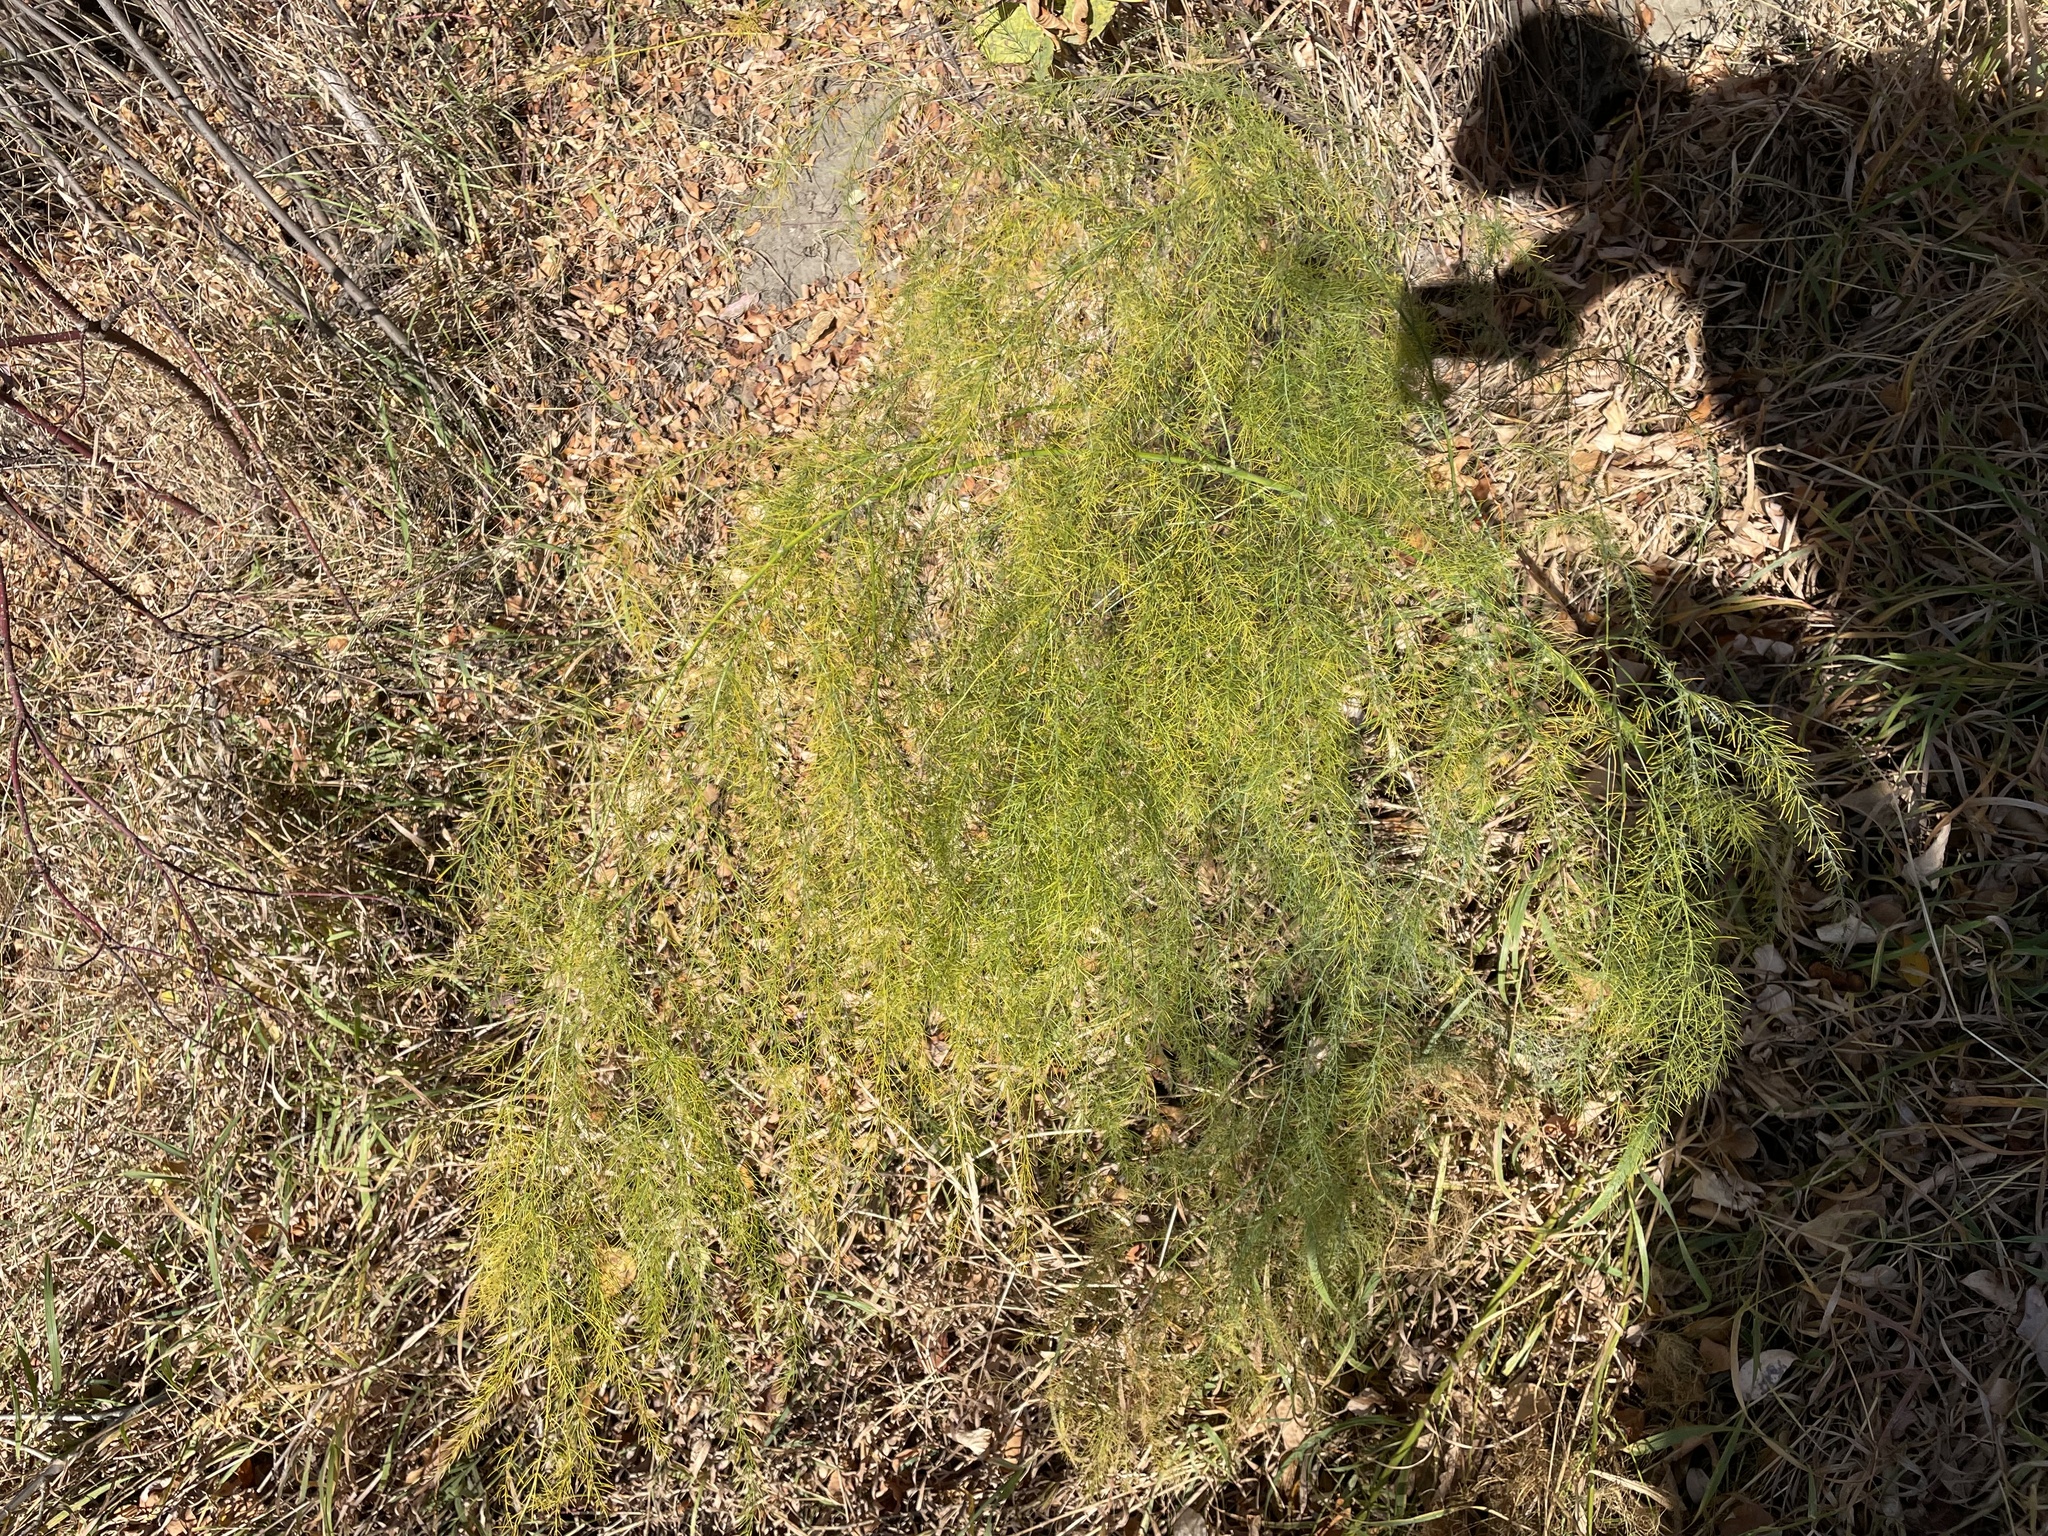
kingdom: Plantae
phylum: Tracheophyta
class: Liliopsida
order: Asparagales
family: Asparagaceae
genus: Asparagus
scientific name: Asparagus officinalis
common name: Garden asparagus
